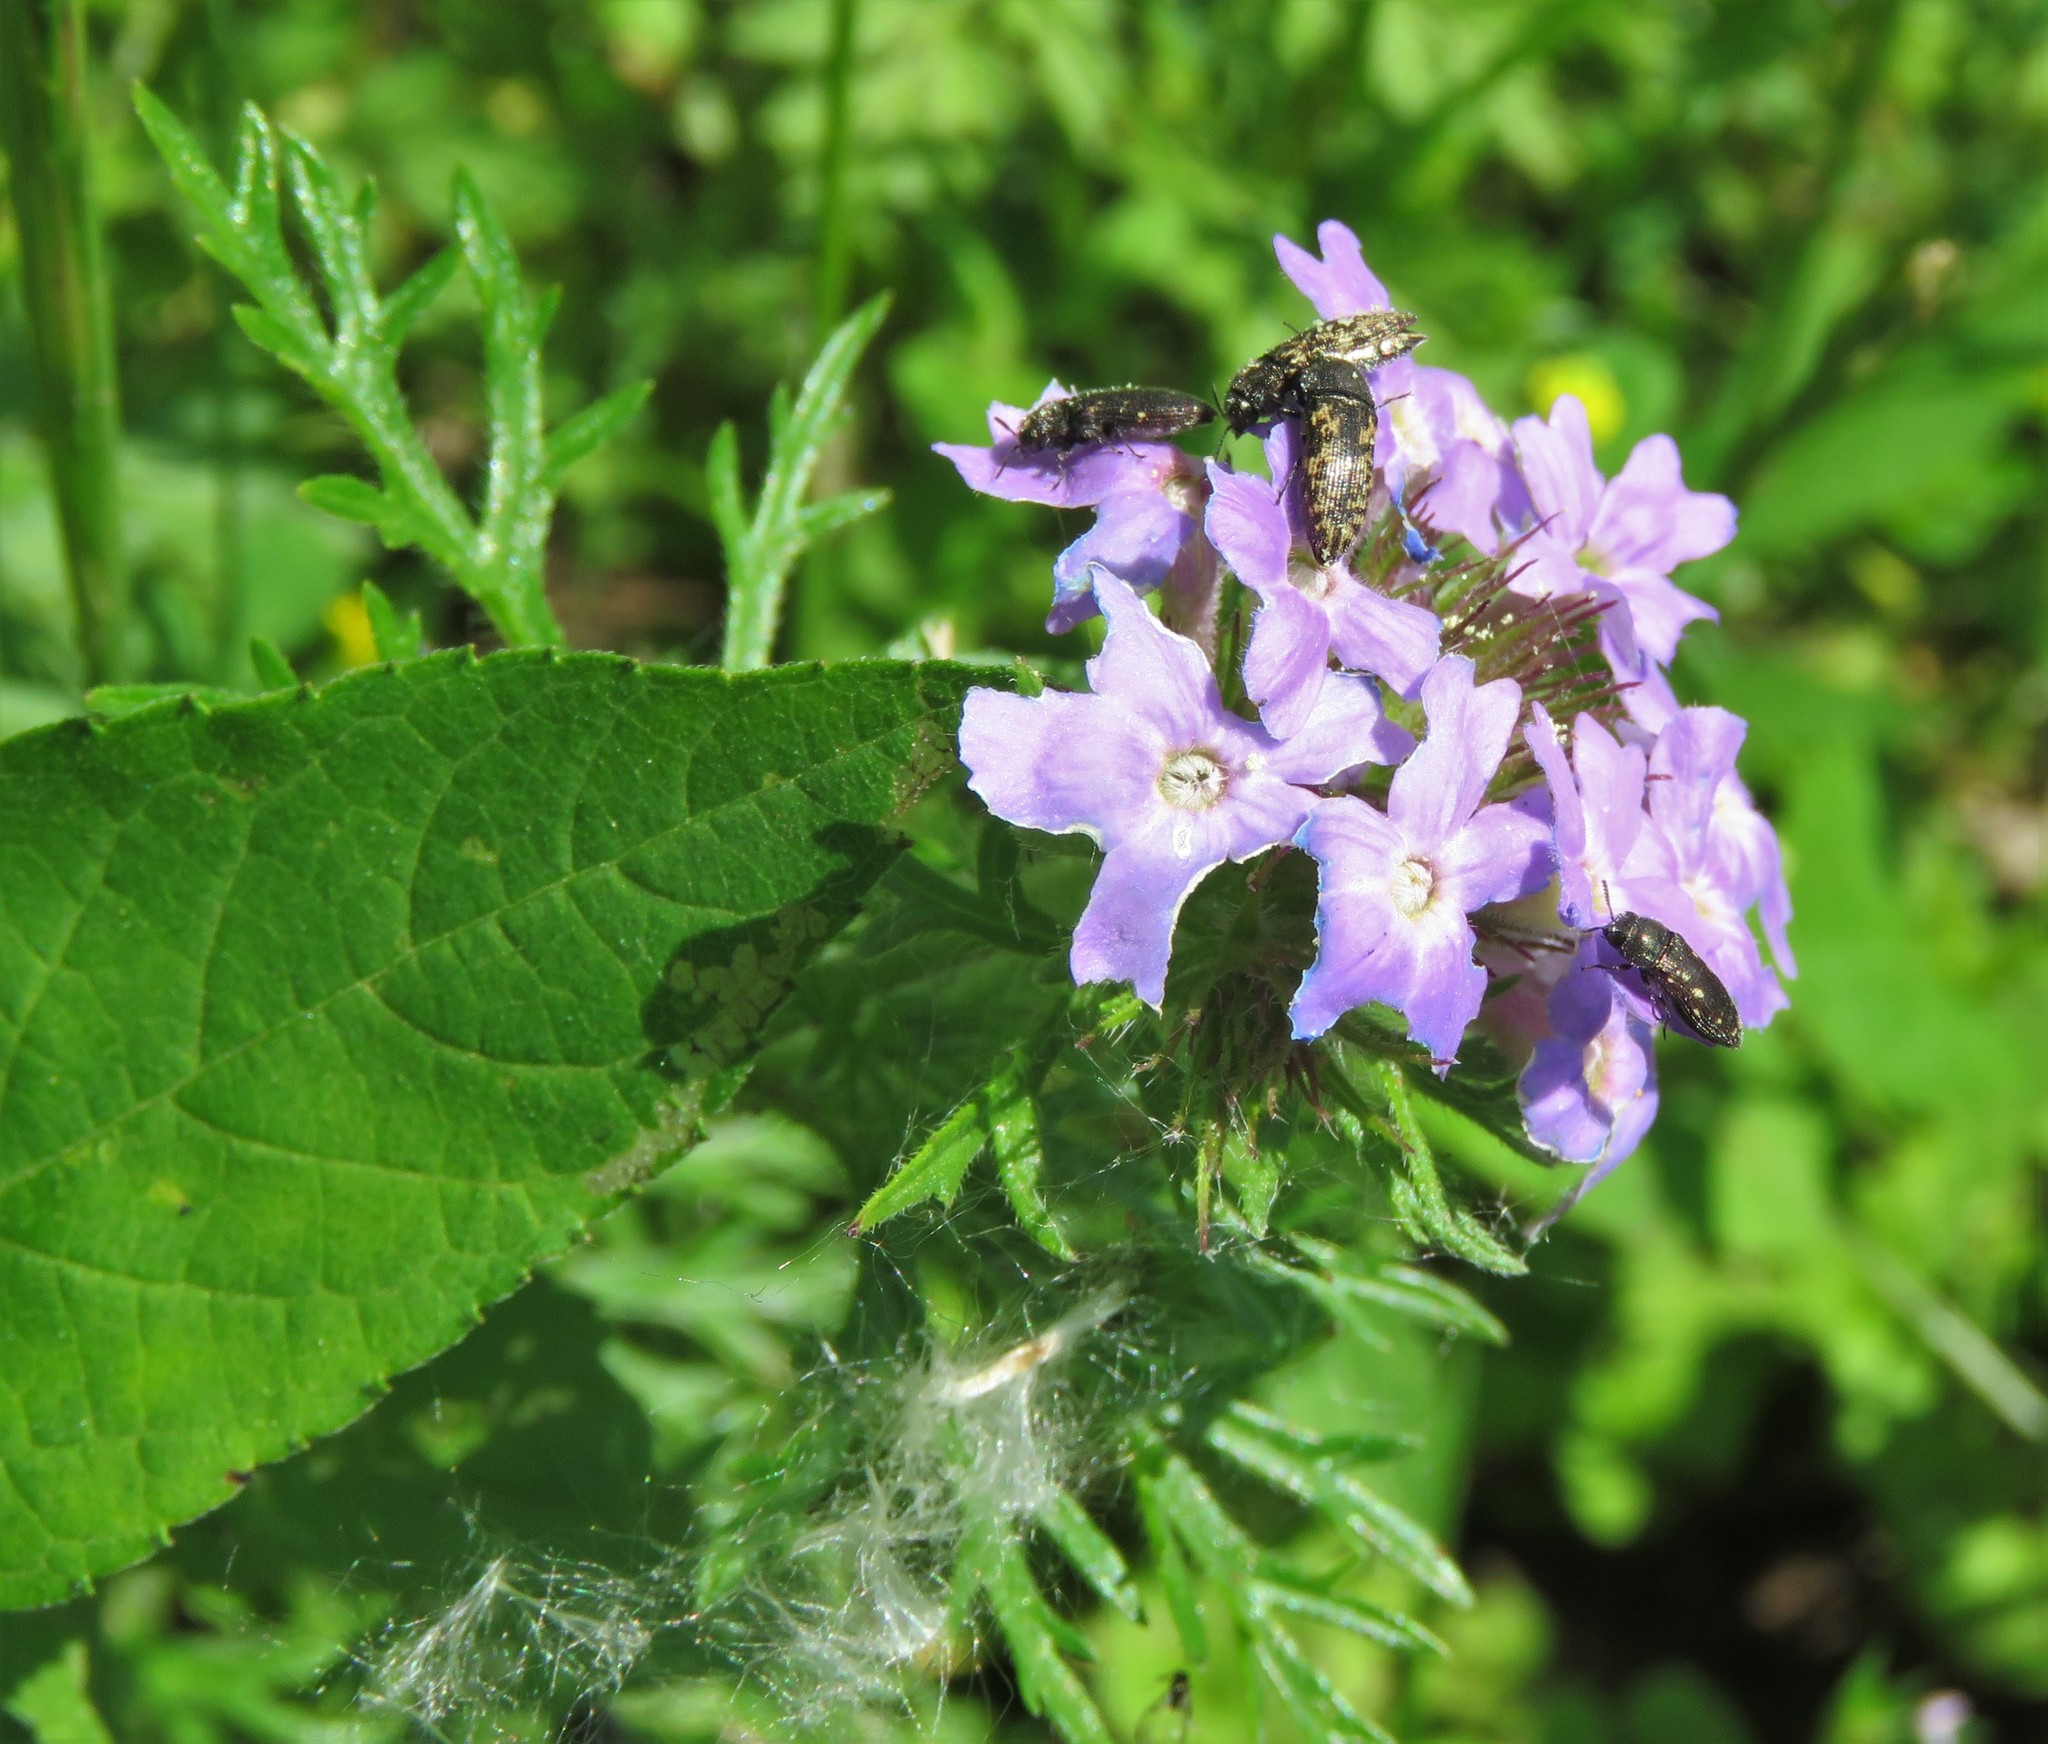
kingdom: Plantae
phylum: Tracheophyta
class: Magnoliopsida
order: Lamiales
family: Verbenaceae
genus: Verbena
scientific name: Verbena bipinnatifida
